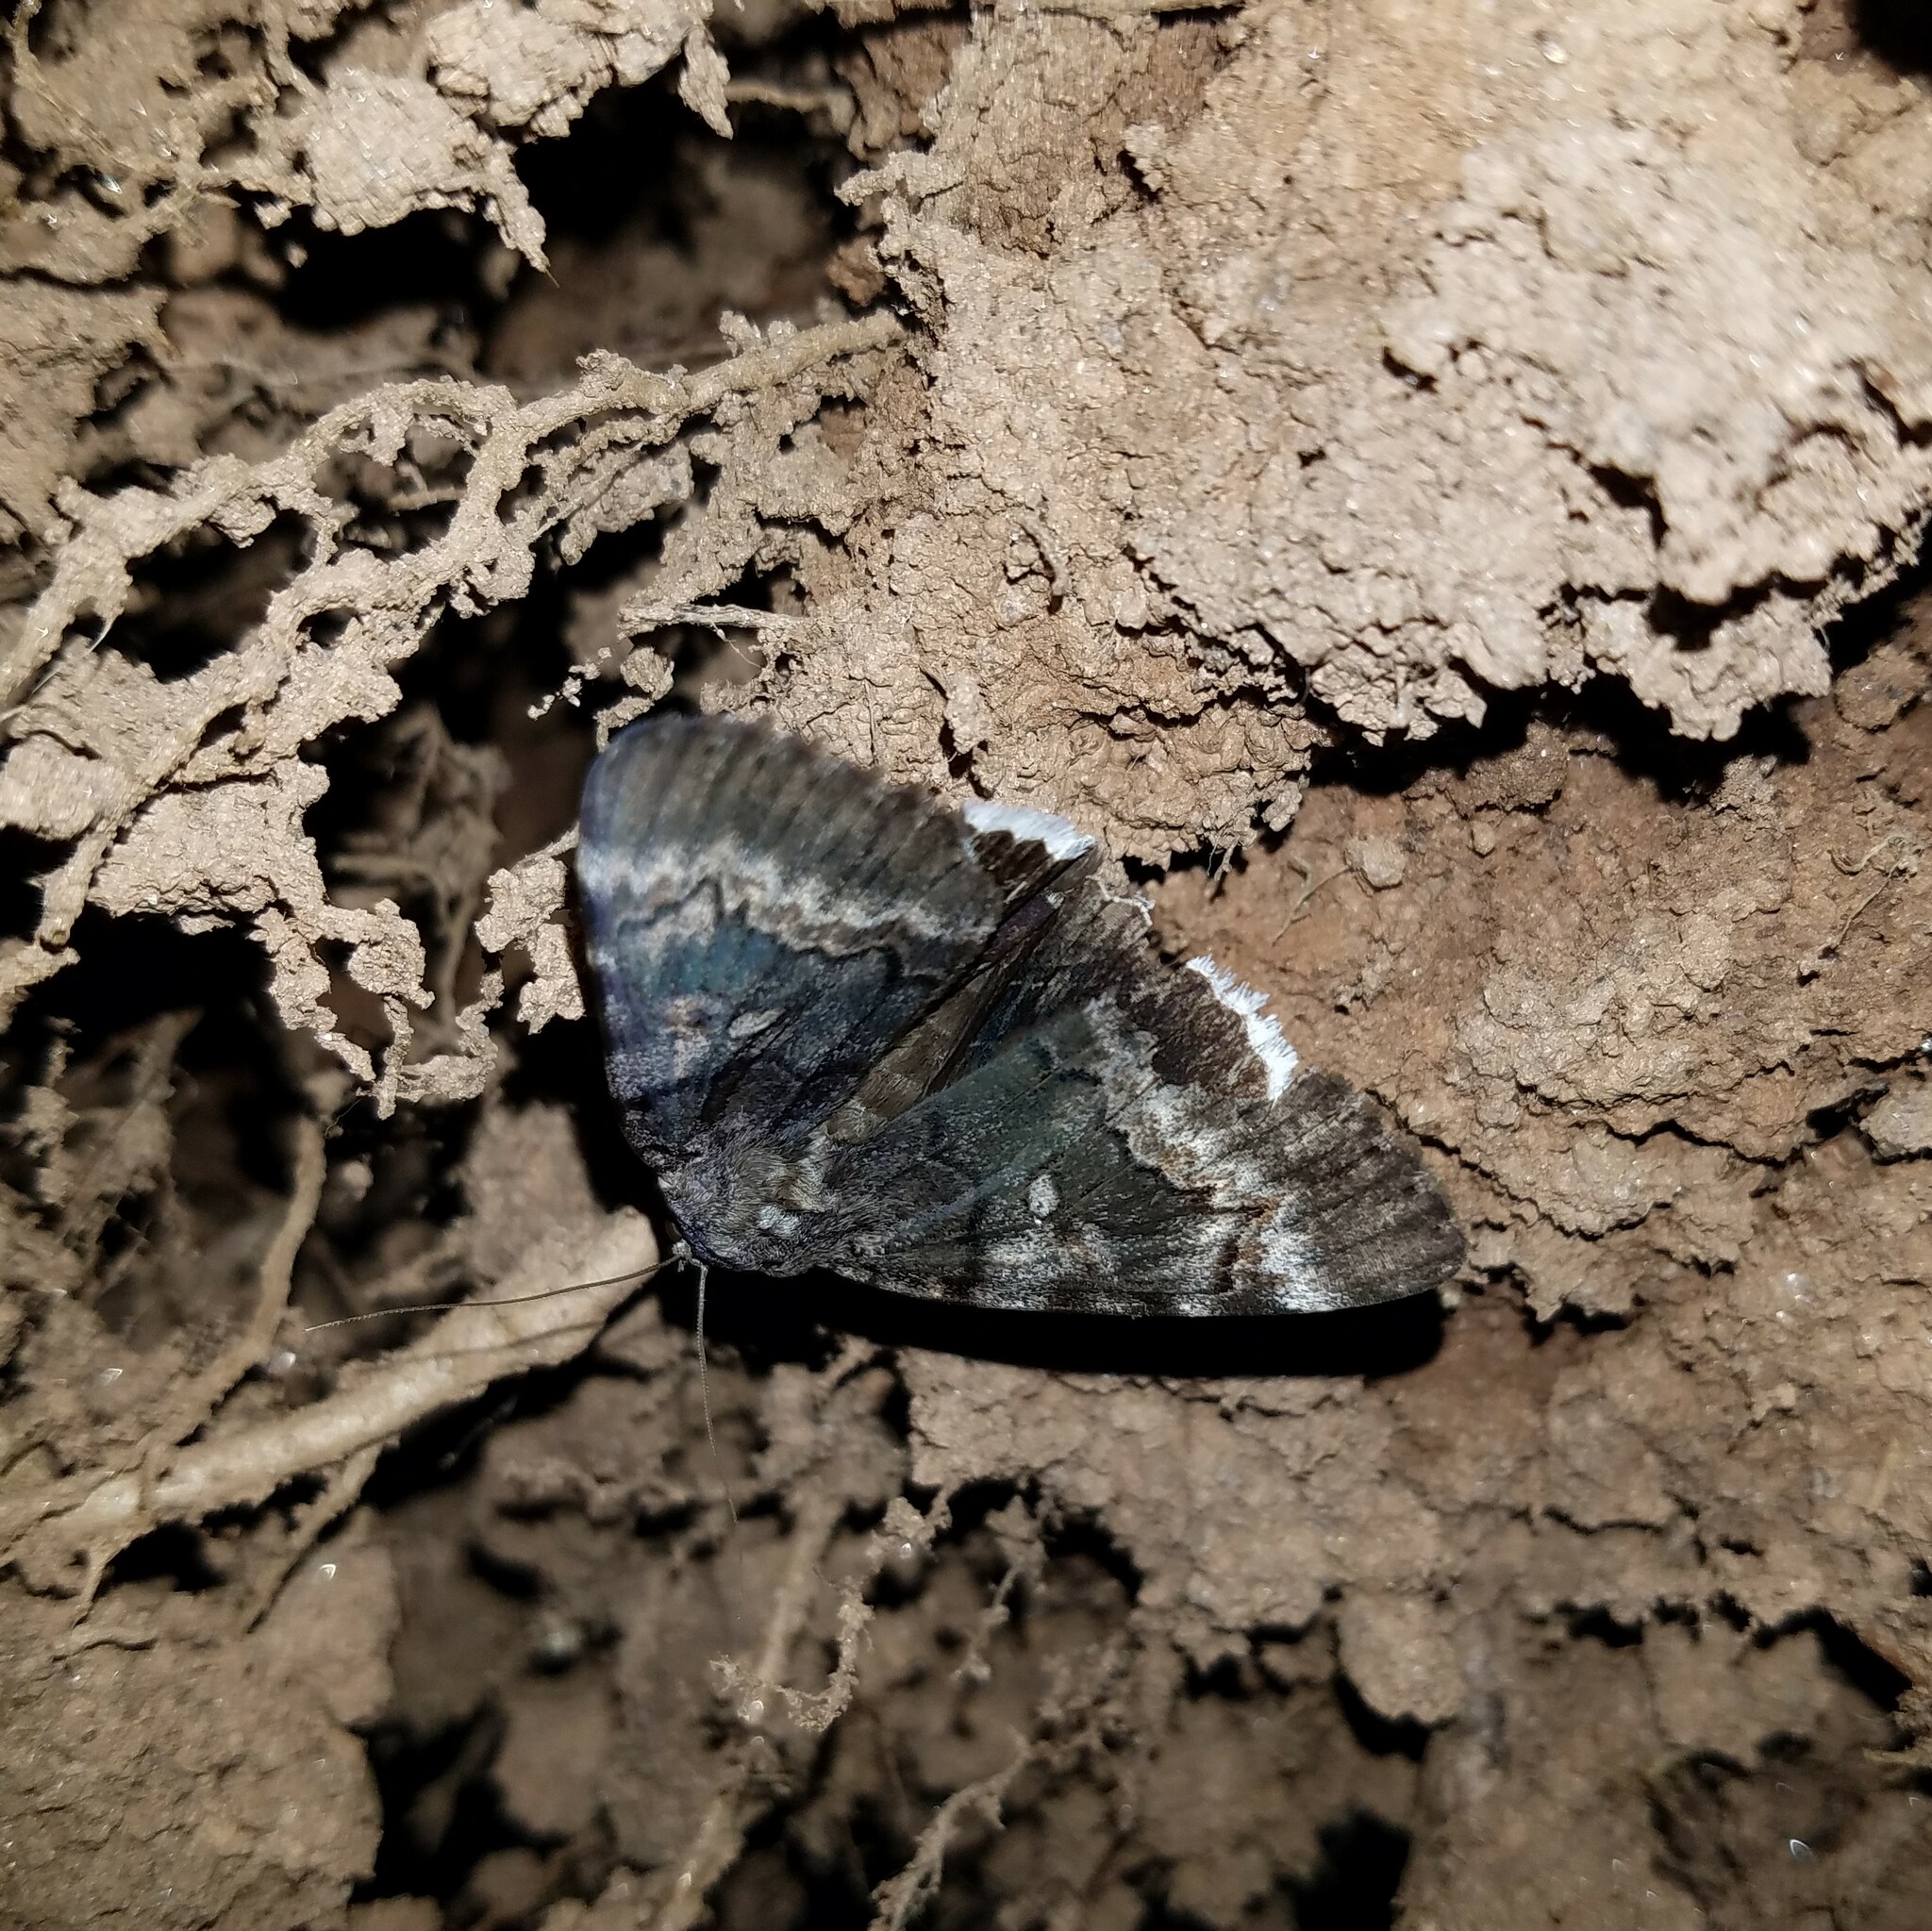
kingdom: Animalia
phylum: Arthropoda
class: Insecta
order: Lepidoptera
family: Erebidae
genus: Catocala
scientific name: Catocala epione
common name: Epione underwing
